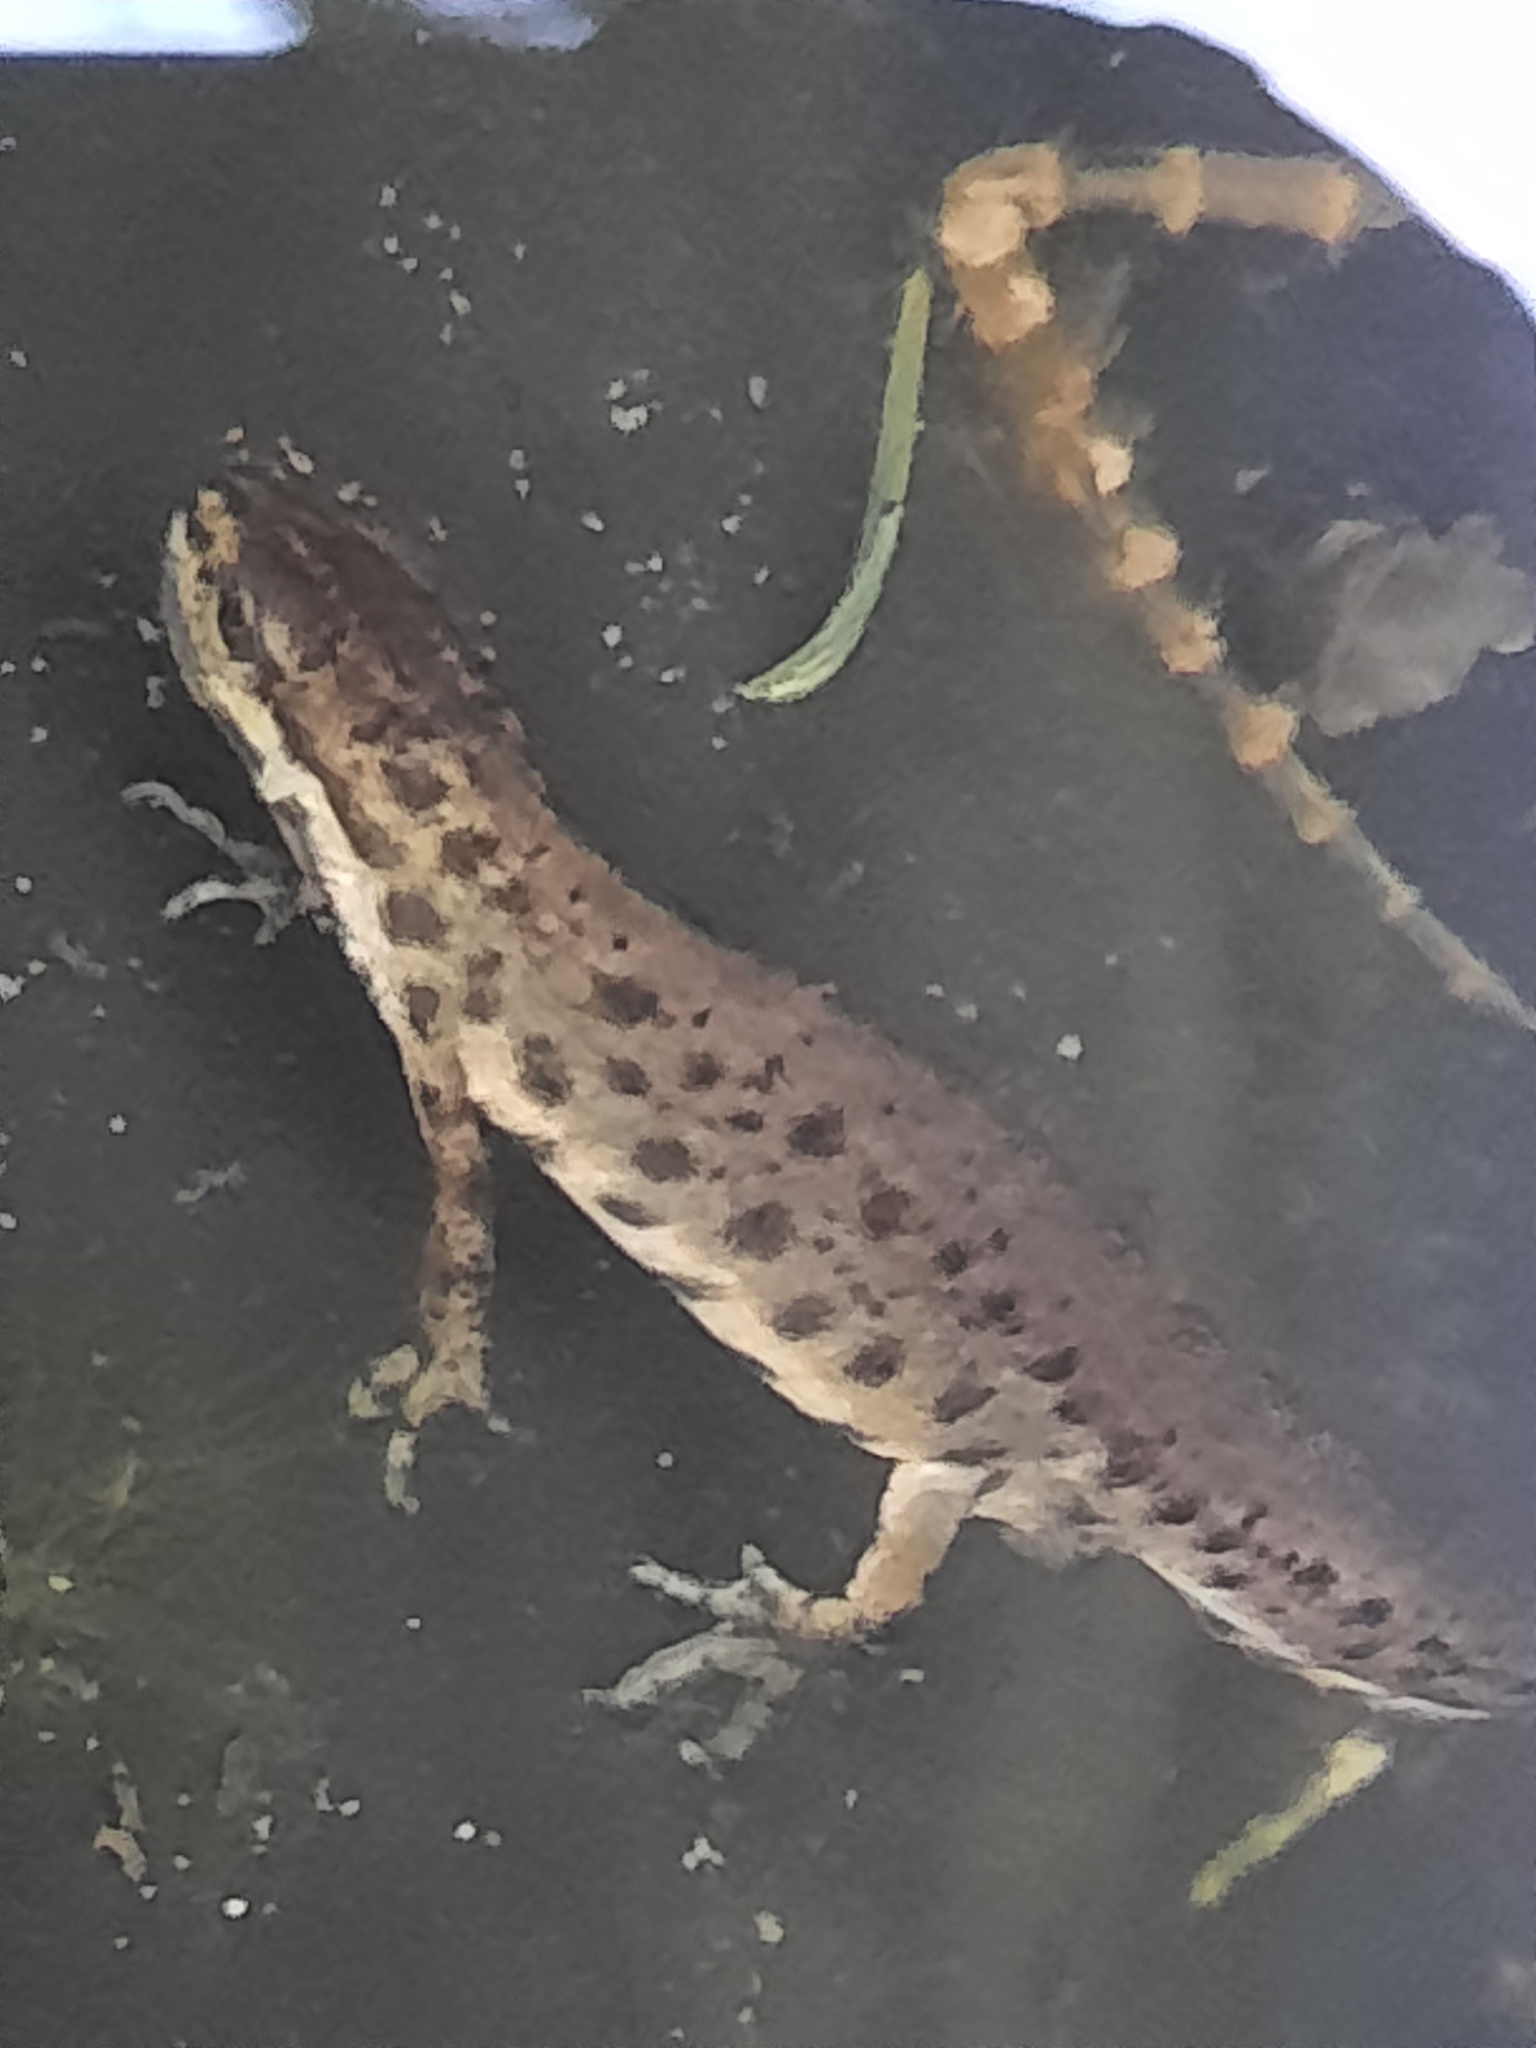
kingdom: Animalia
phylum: Chordata
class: Amphibia
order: Caudata
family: Salamandridae
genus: Lissotriton
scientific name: Lissotriton vulgaris
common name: Smooth newt
